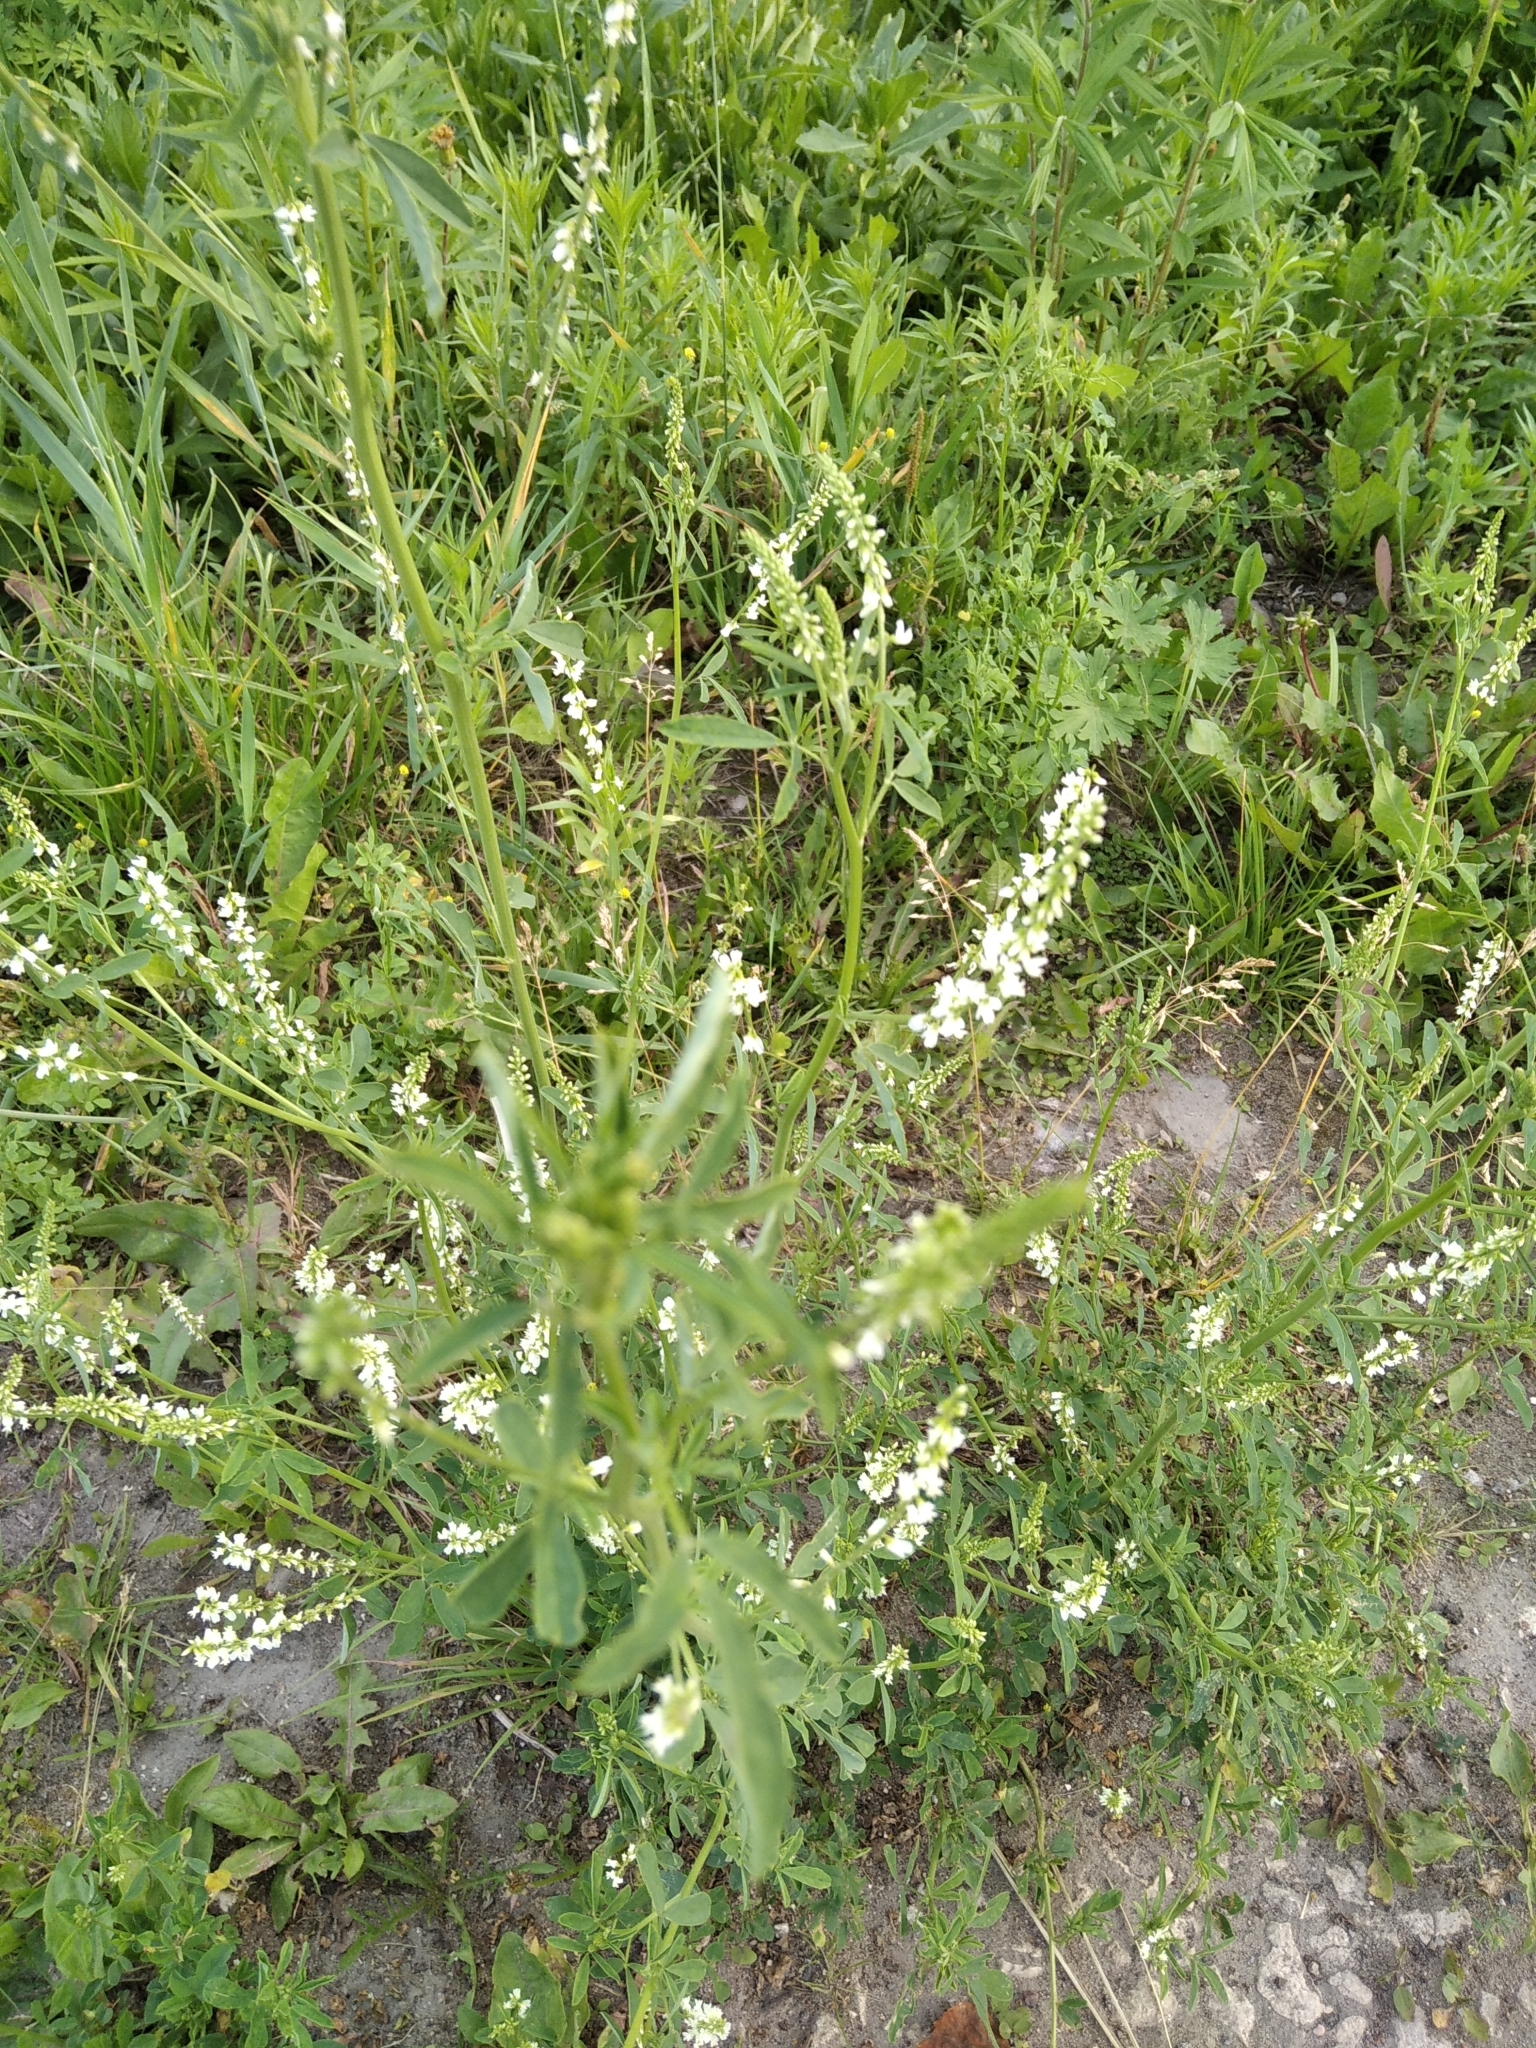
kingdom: Plantae
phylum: Tracheophyta
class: Magnoliopsida
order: Fabales
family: Fabaceae
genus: Melilotus
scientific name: Melilotus albus
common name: White melilot
